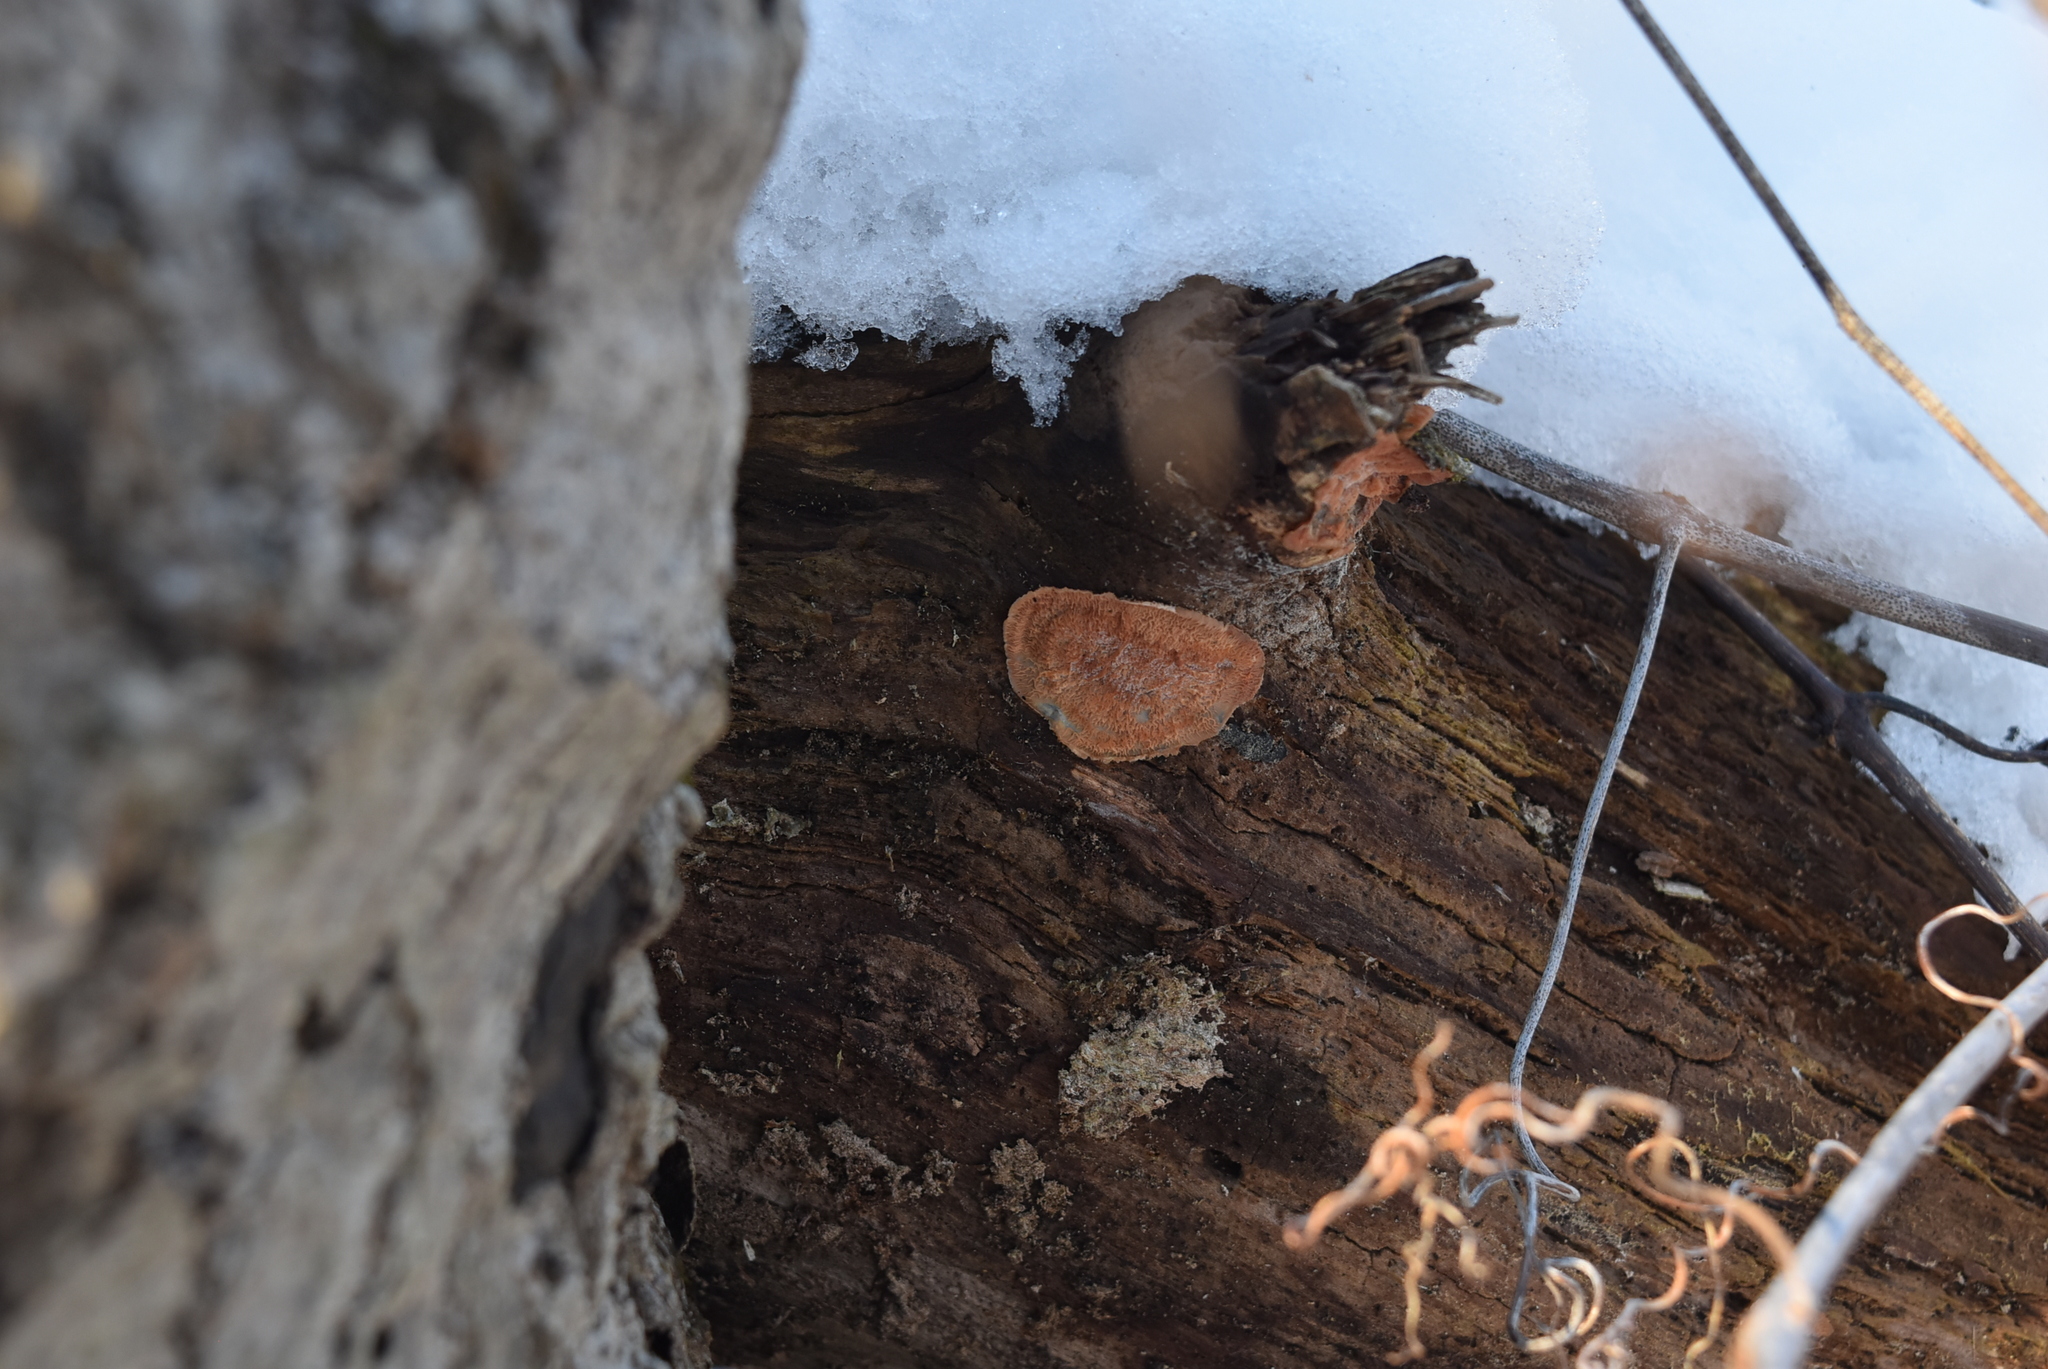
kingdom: Fungi
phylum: Basidiomycota
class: Agaricomycetes
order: Polyporales
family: Meruliaceae
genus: Phlebia
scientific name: Phlebia radiata
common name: Wrinkled crust
